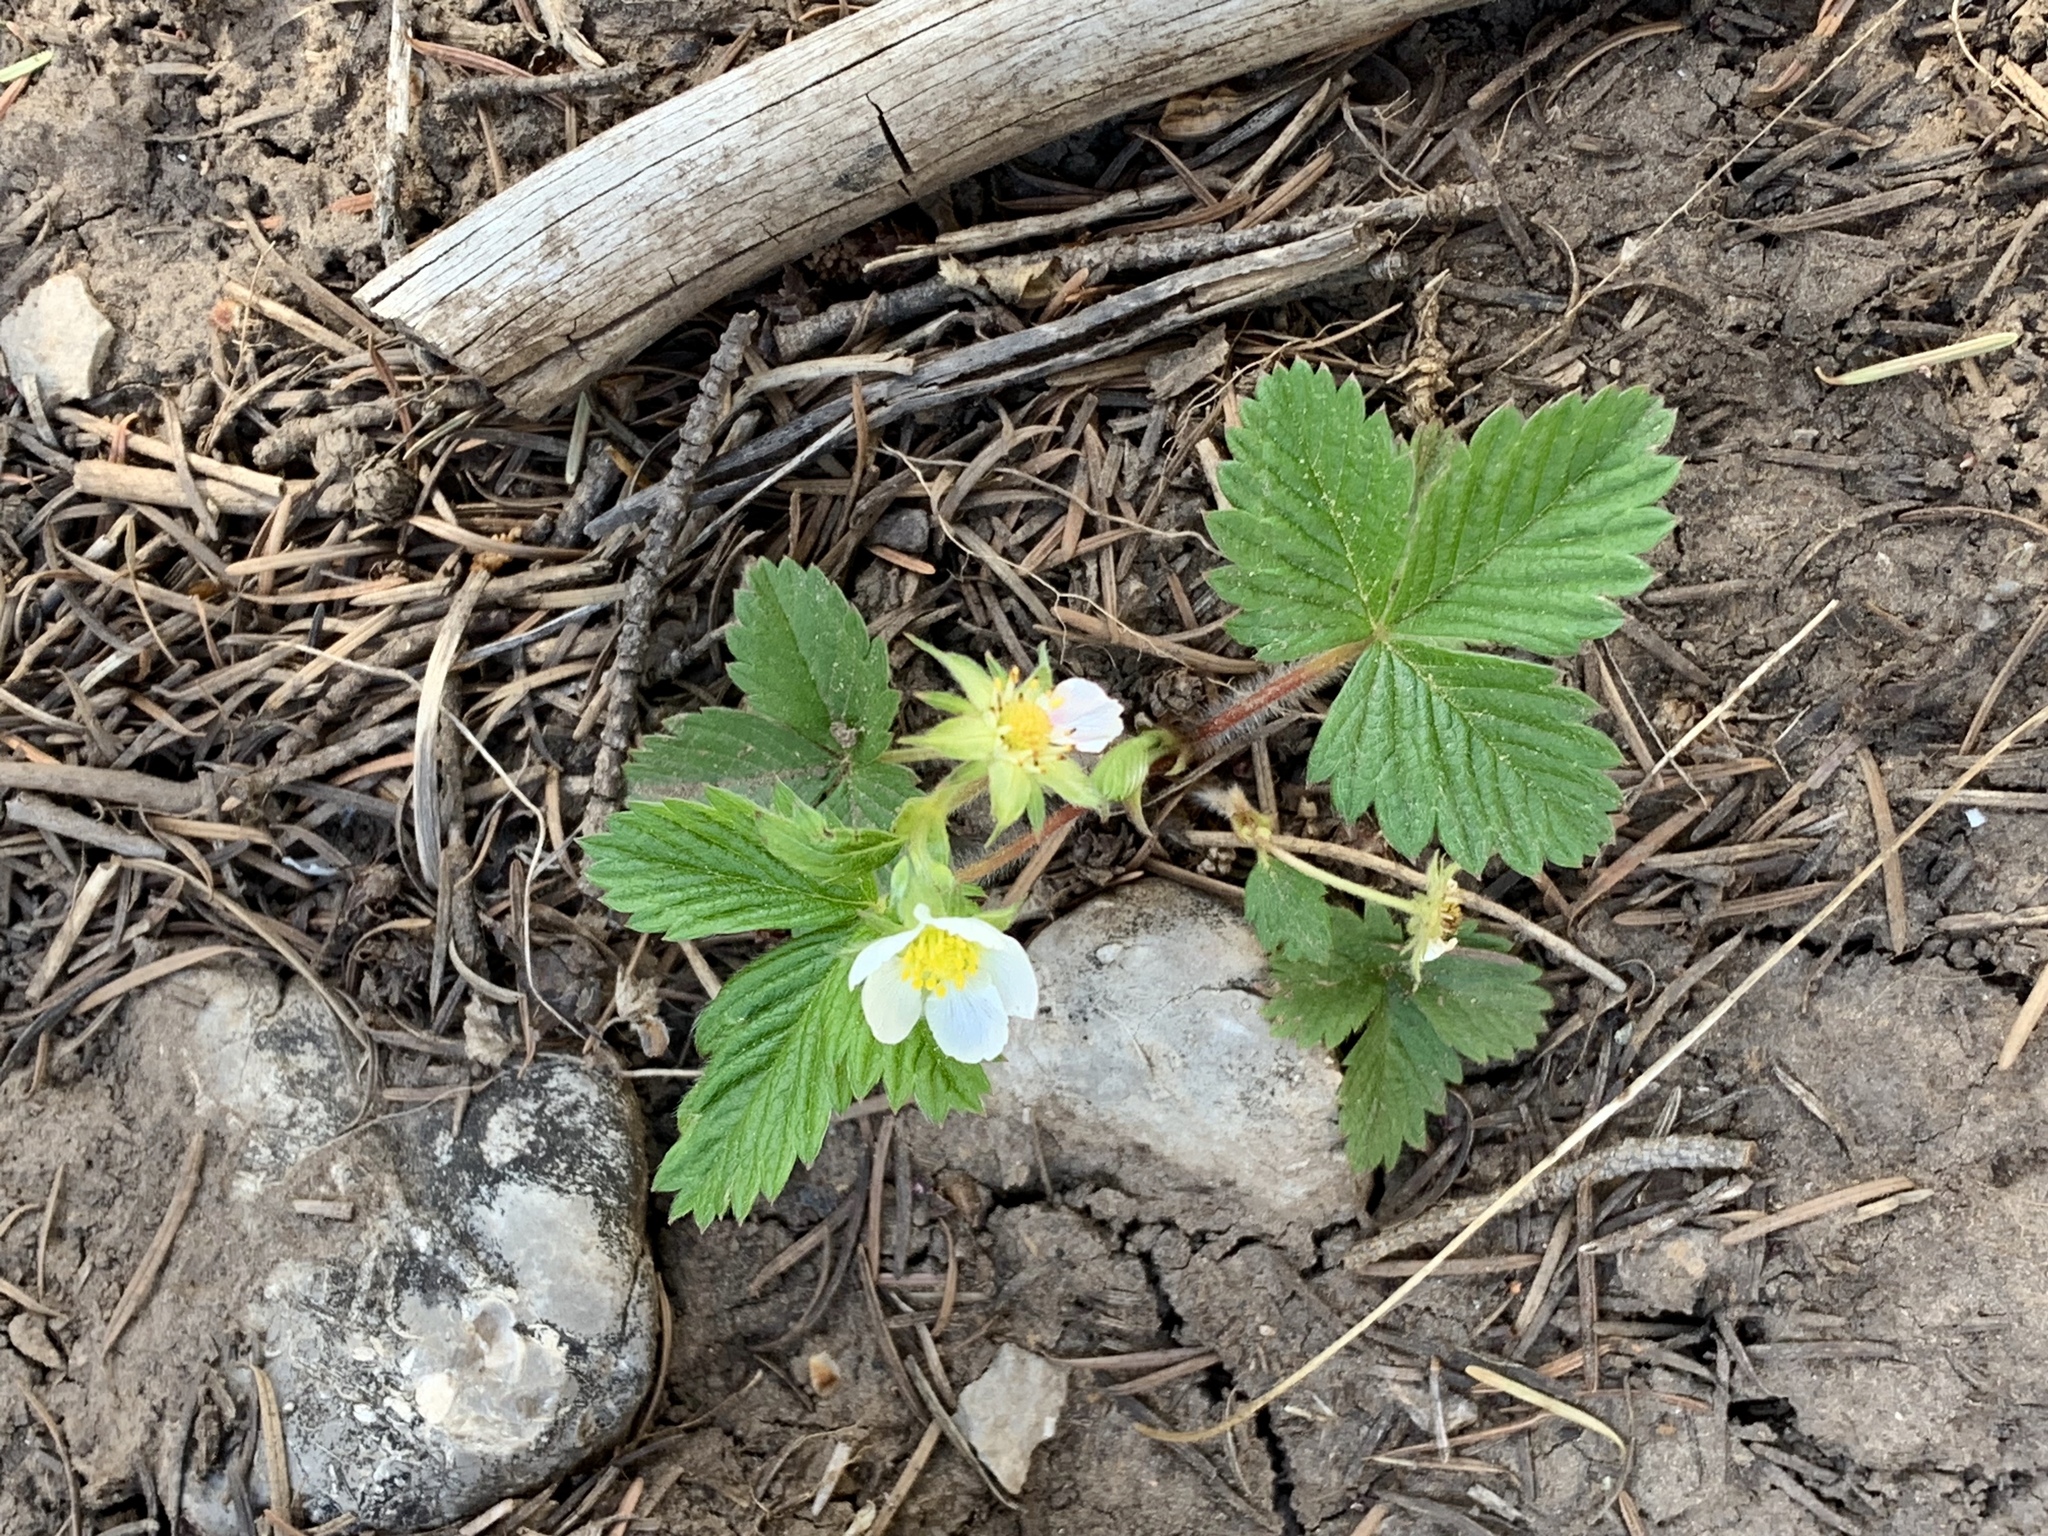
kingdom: Plantae
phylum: Tracheophyta
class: Magnoliopsida
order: Rosales
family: Rosaceae
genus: Fragaria
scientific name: Fragaria vesca
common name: Wild strawberry
